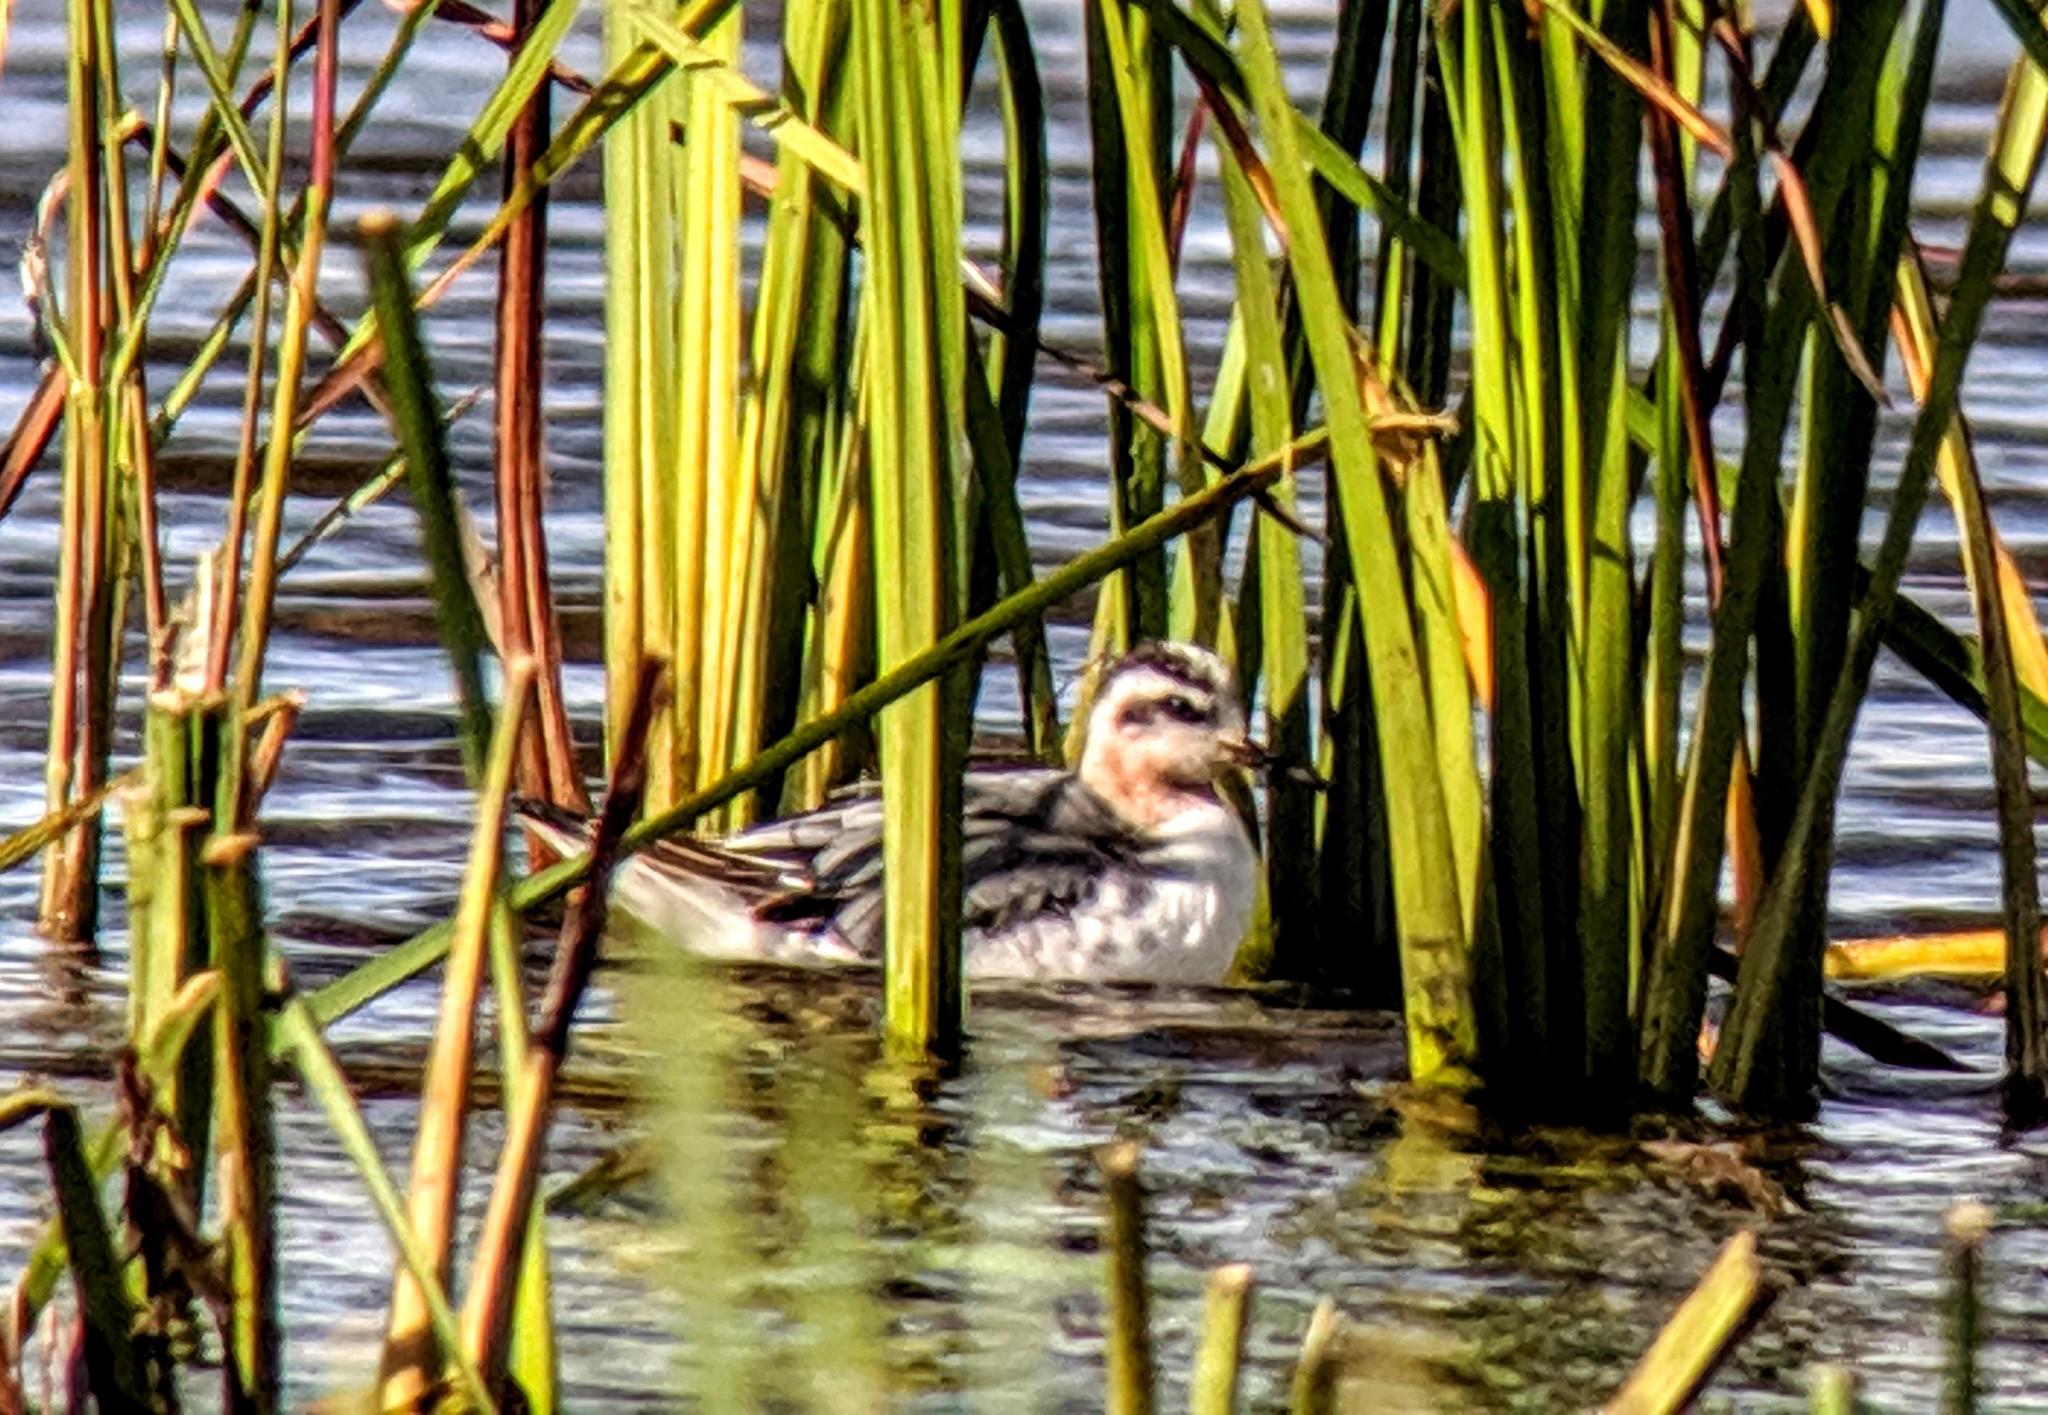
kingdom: Animalia
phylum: Chordata
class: Aves
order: Charadriiformes
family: Scolopacidae
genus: Phalaropus
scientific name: Phalaropus fulicarius
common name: Red phalarope
